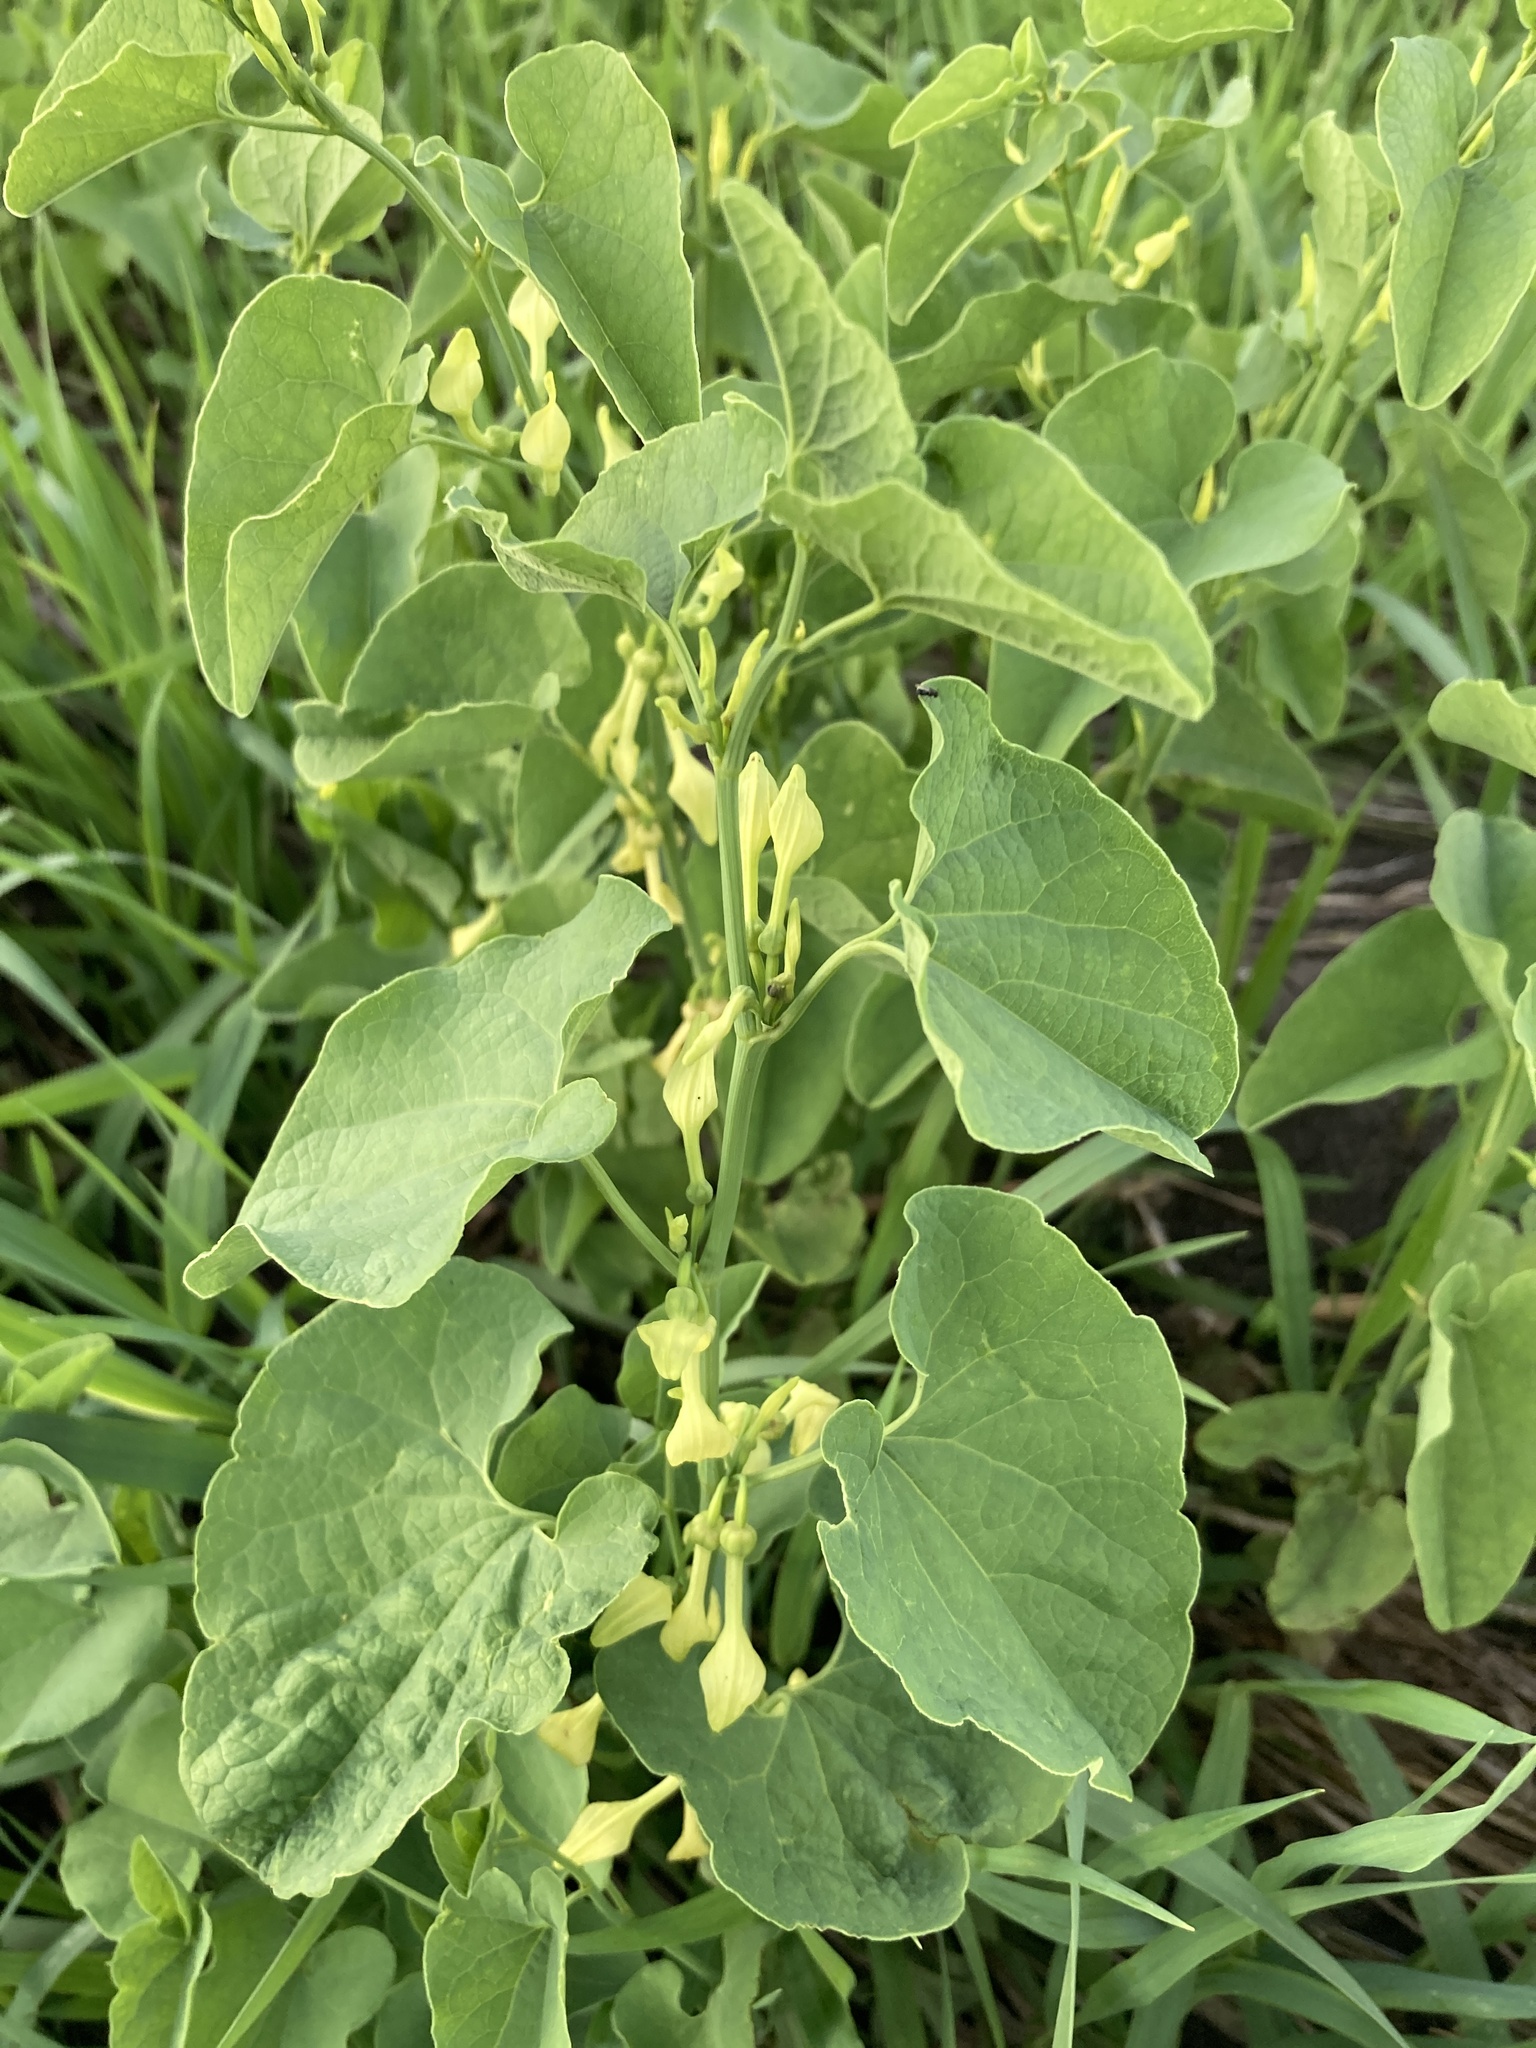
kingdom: Plantae
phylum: Tracheophyta
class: Magnoliopsida
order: Piperales
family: Aristolochiaceae
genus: Aristolochia
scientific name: Aristolochia clematitis
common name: Birthwort
